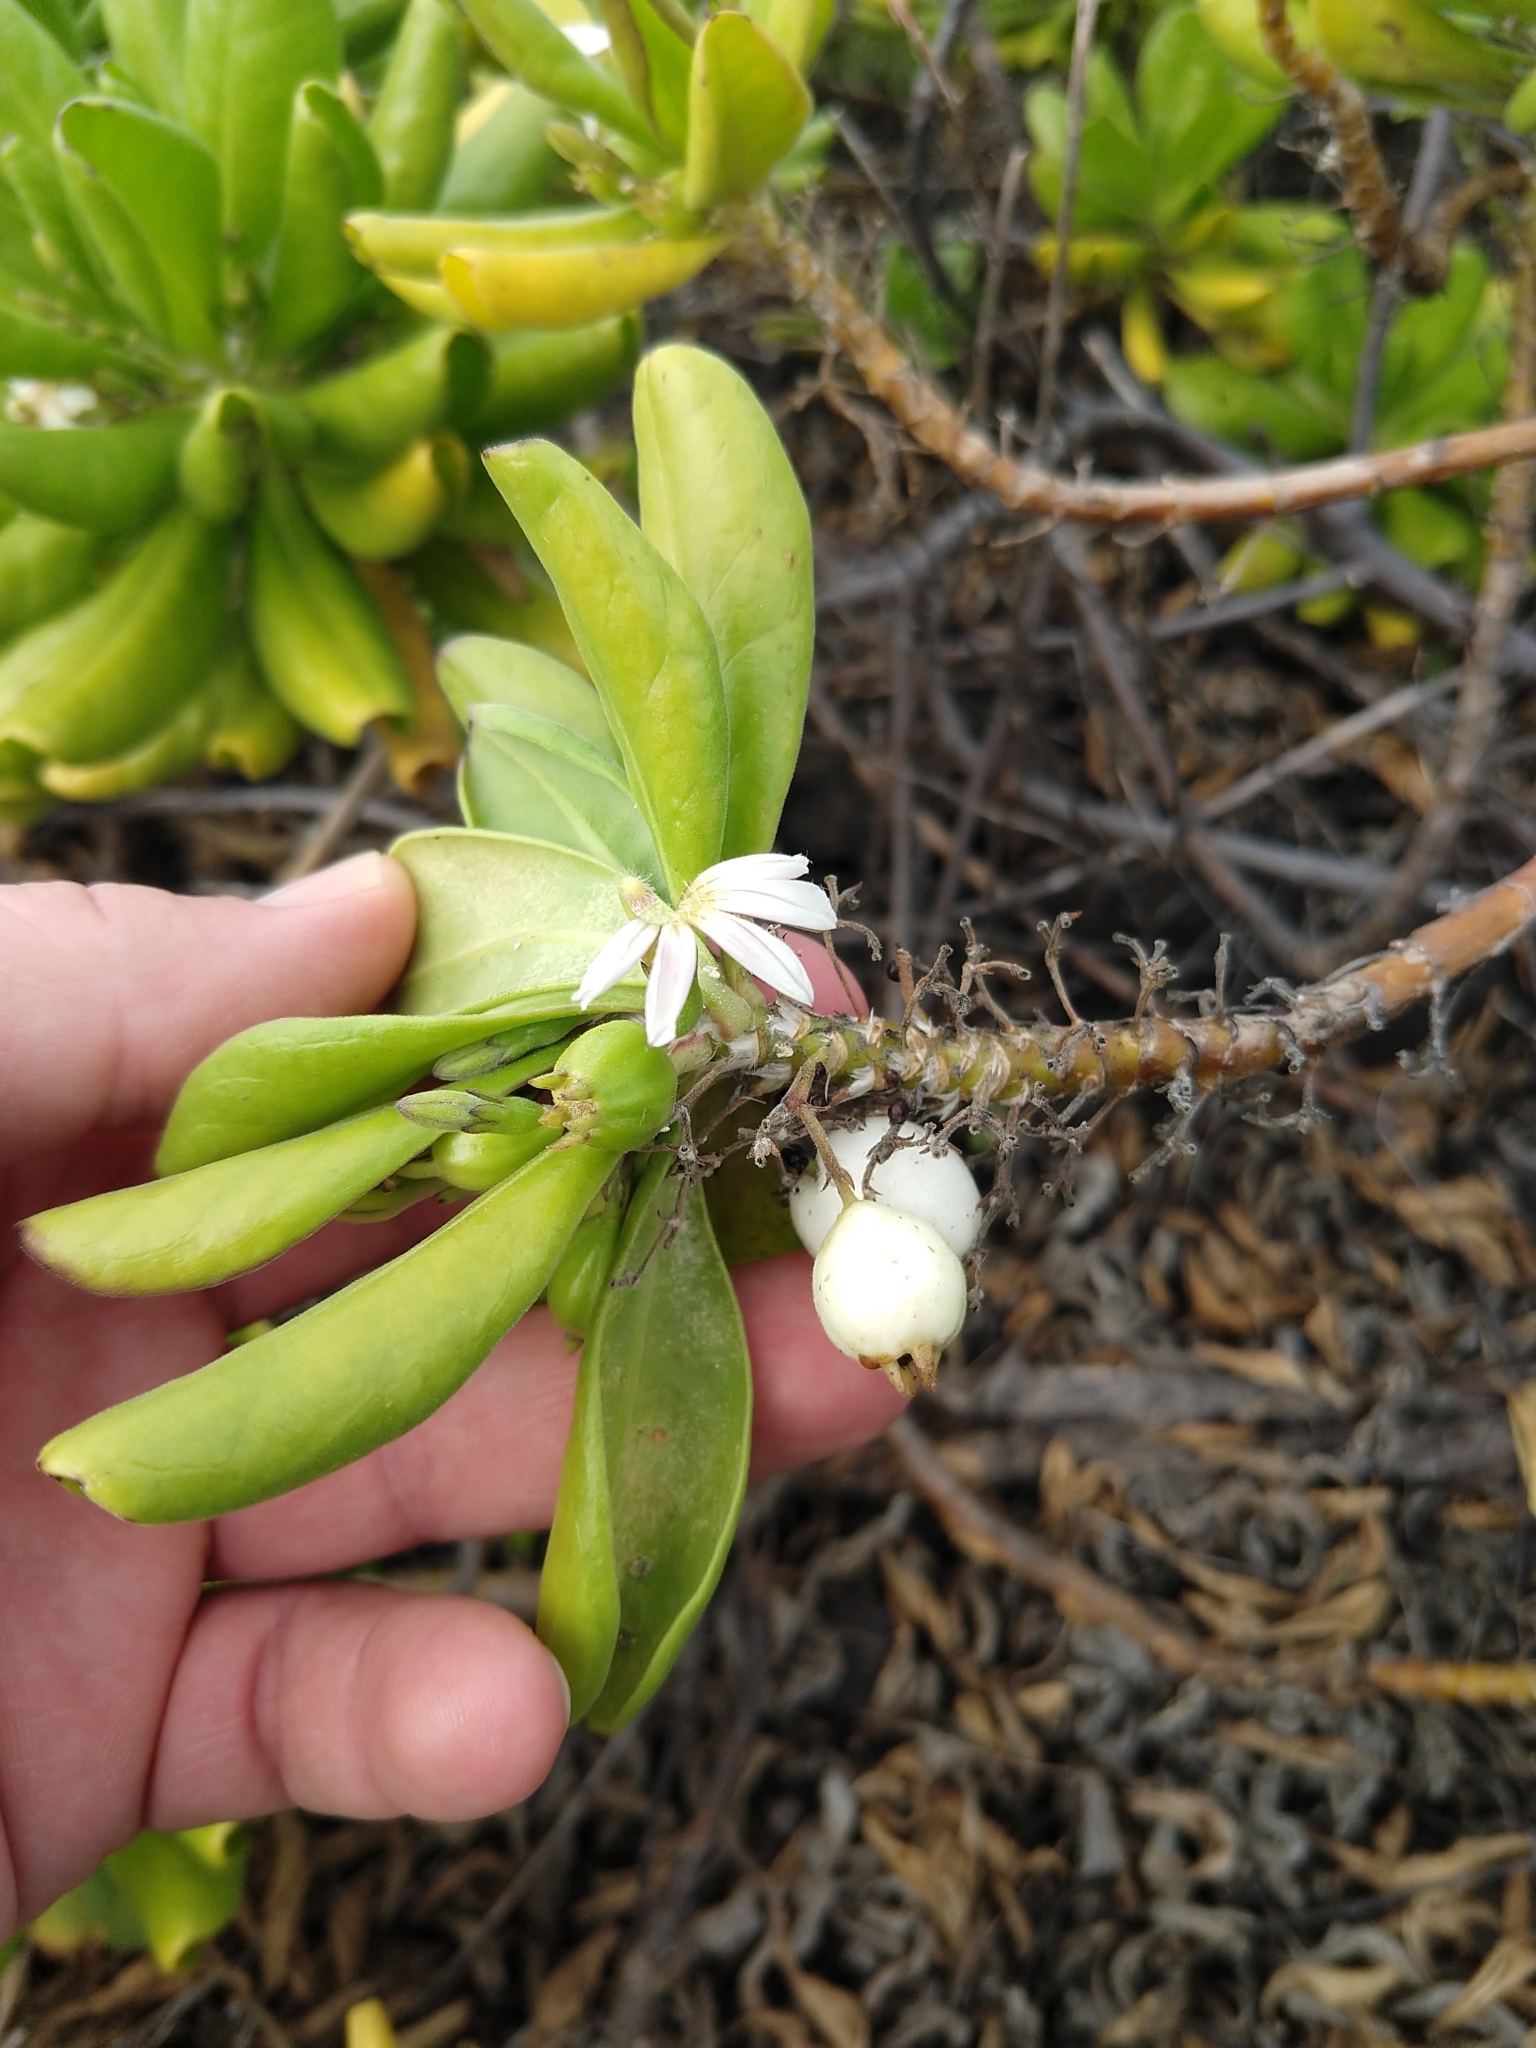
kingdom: Plantae
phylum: Tracheophyta
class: Magnoliopsida
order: Asterales
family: Goodeniaceae
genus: Scaevola
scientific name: Scaevola taccada
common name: Sea lettucetree
